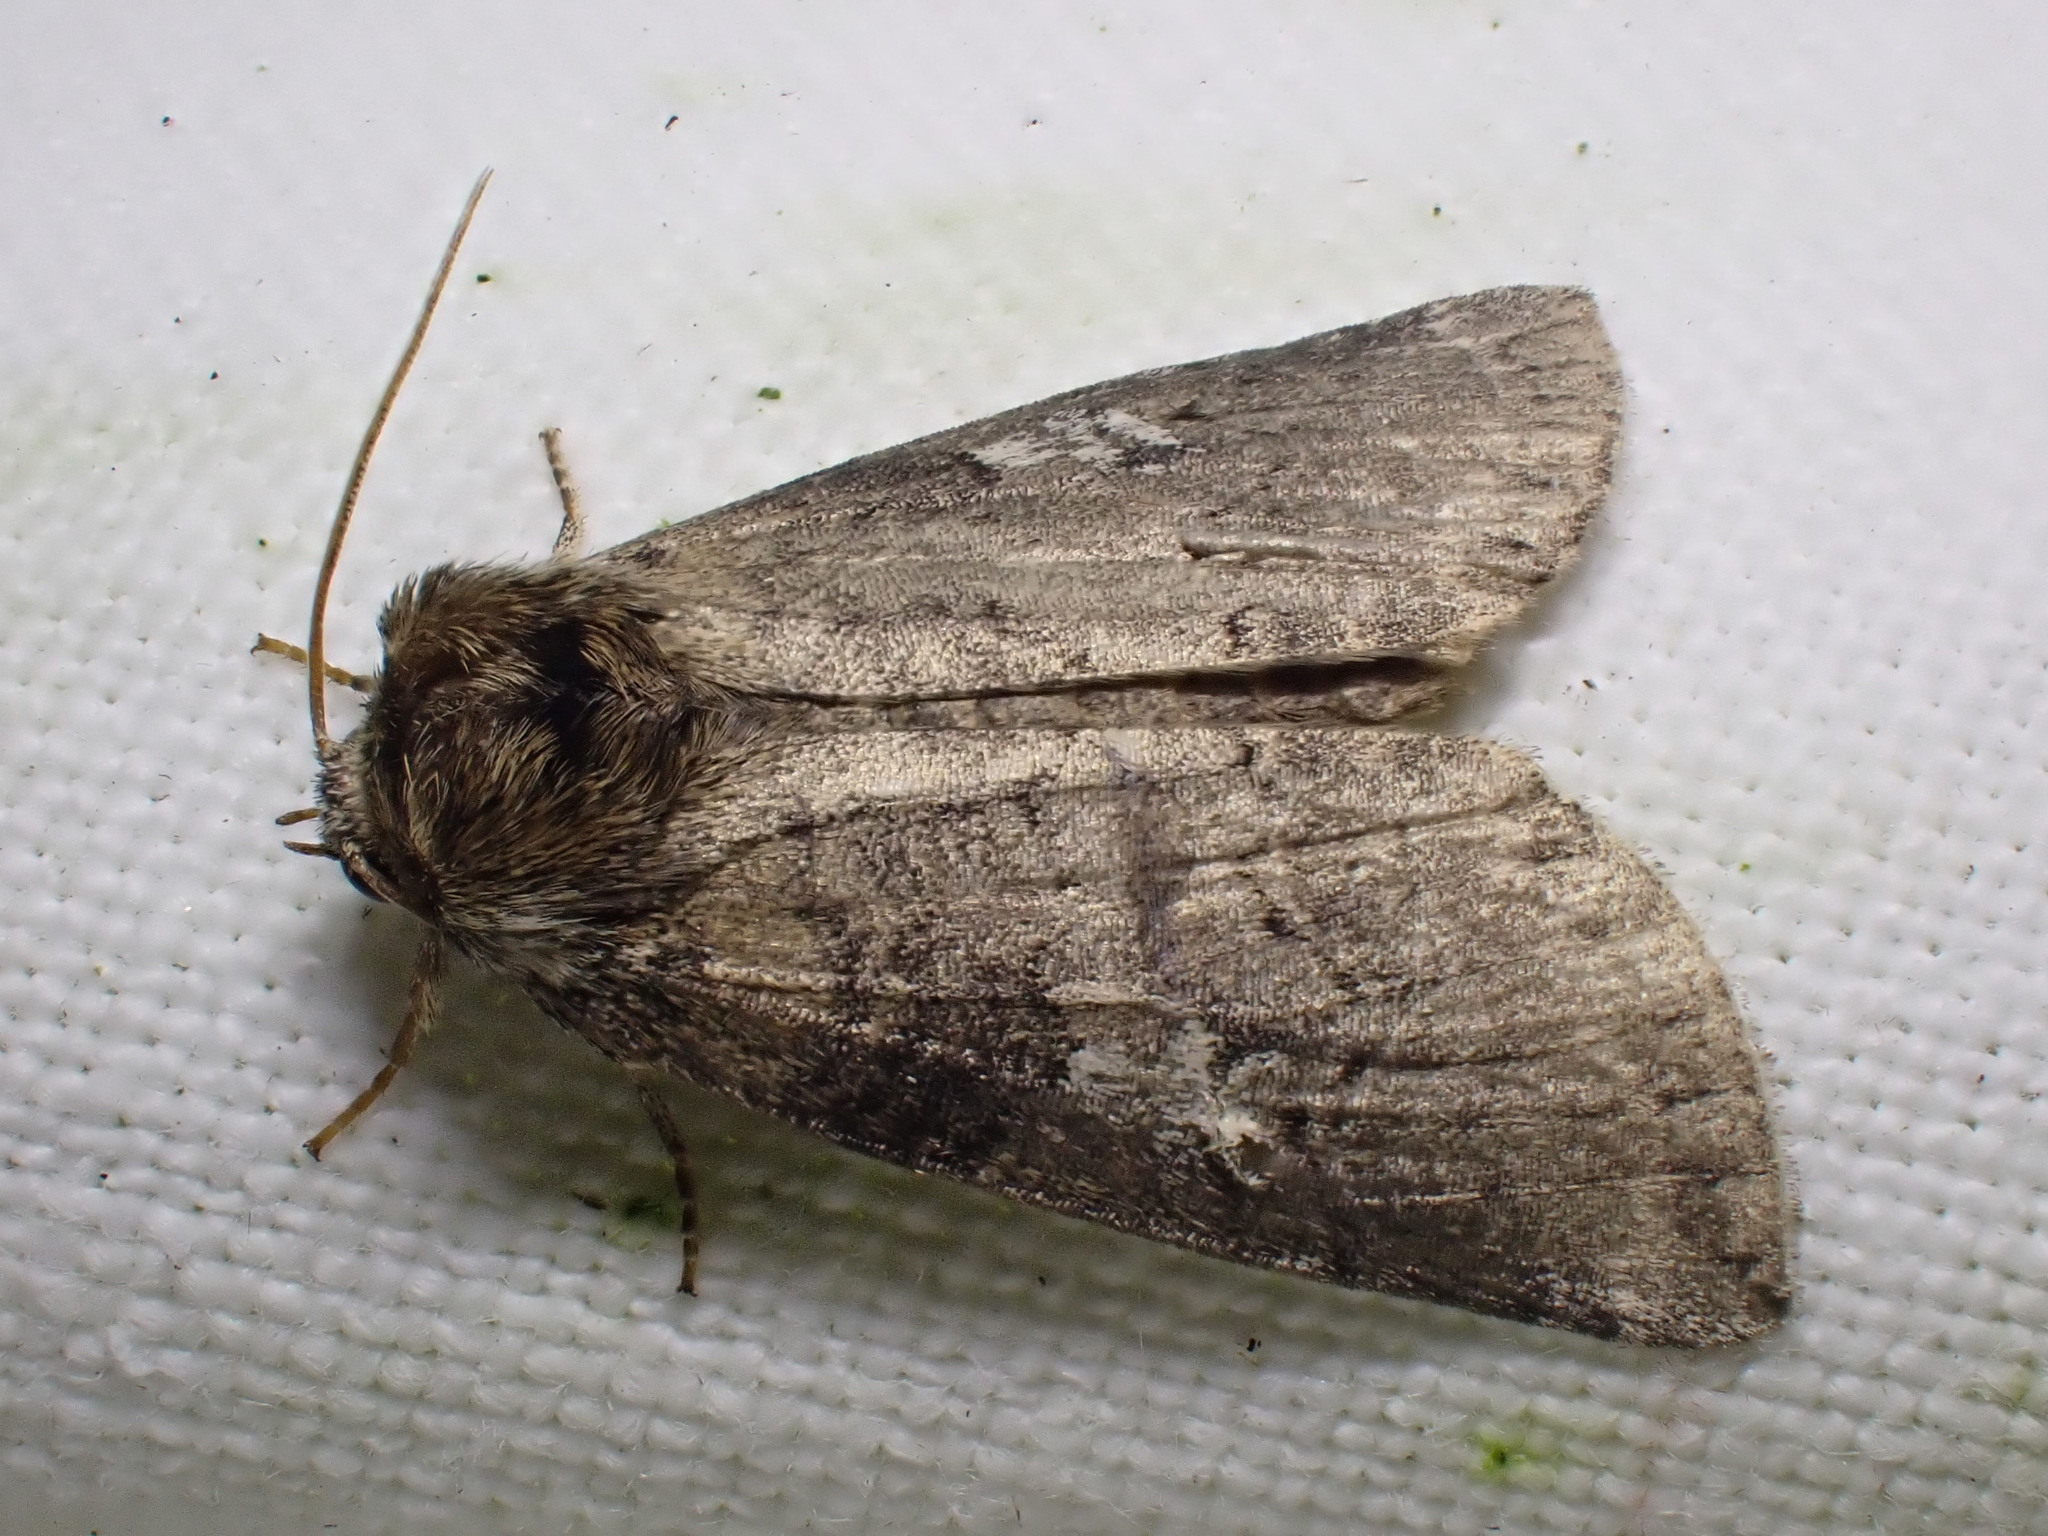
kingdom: Animalia
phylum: Arthropoda
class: Insecta
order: Lepidoptera
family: Drepanidae
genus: Tethea
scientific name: Tethea or
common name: Poplar lutestring
